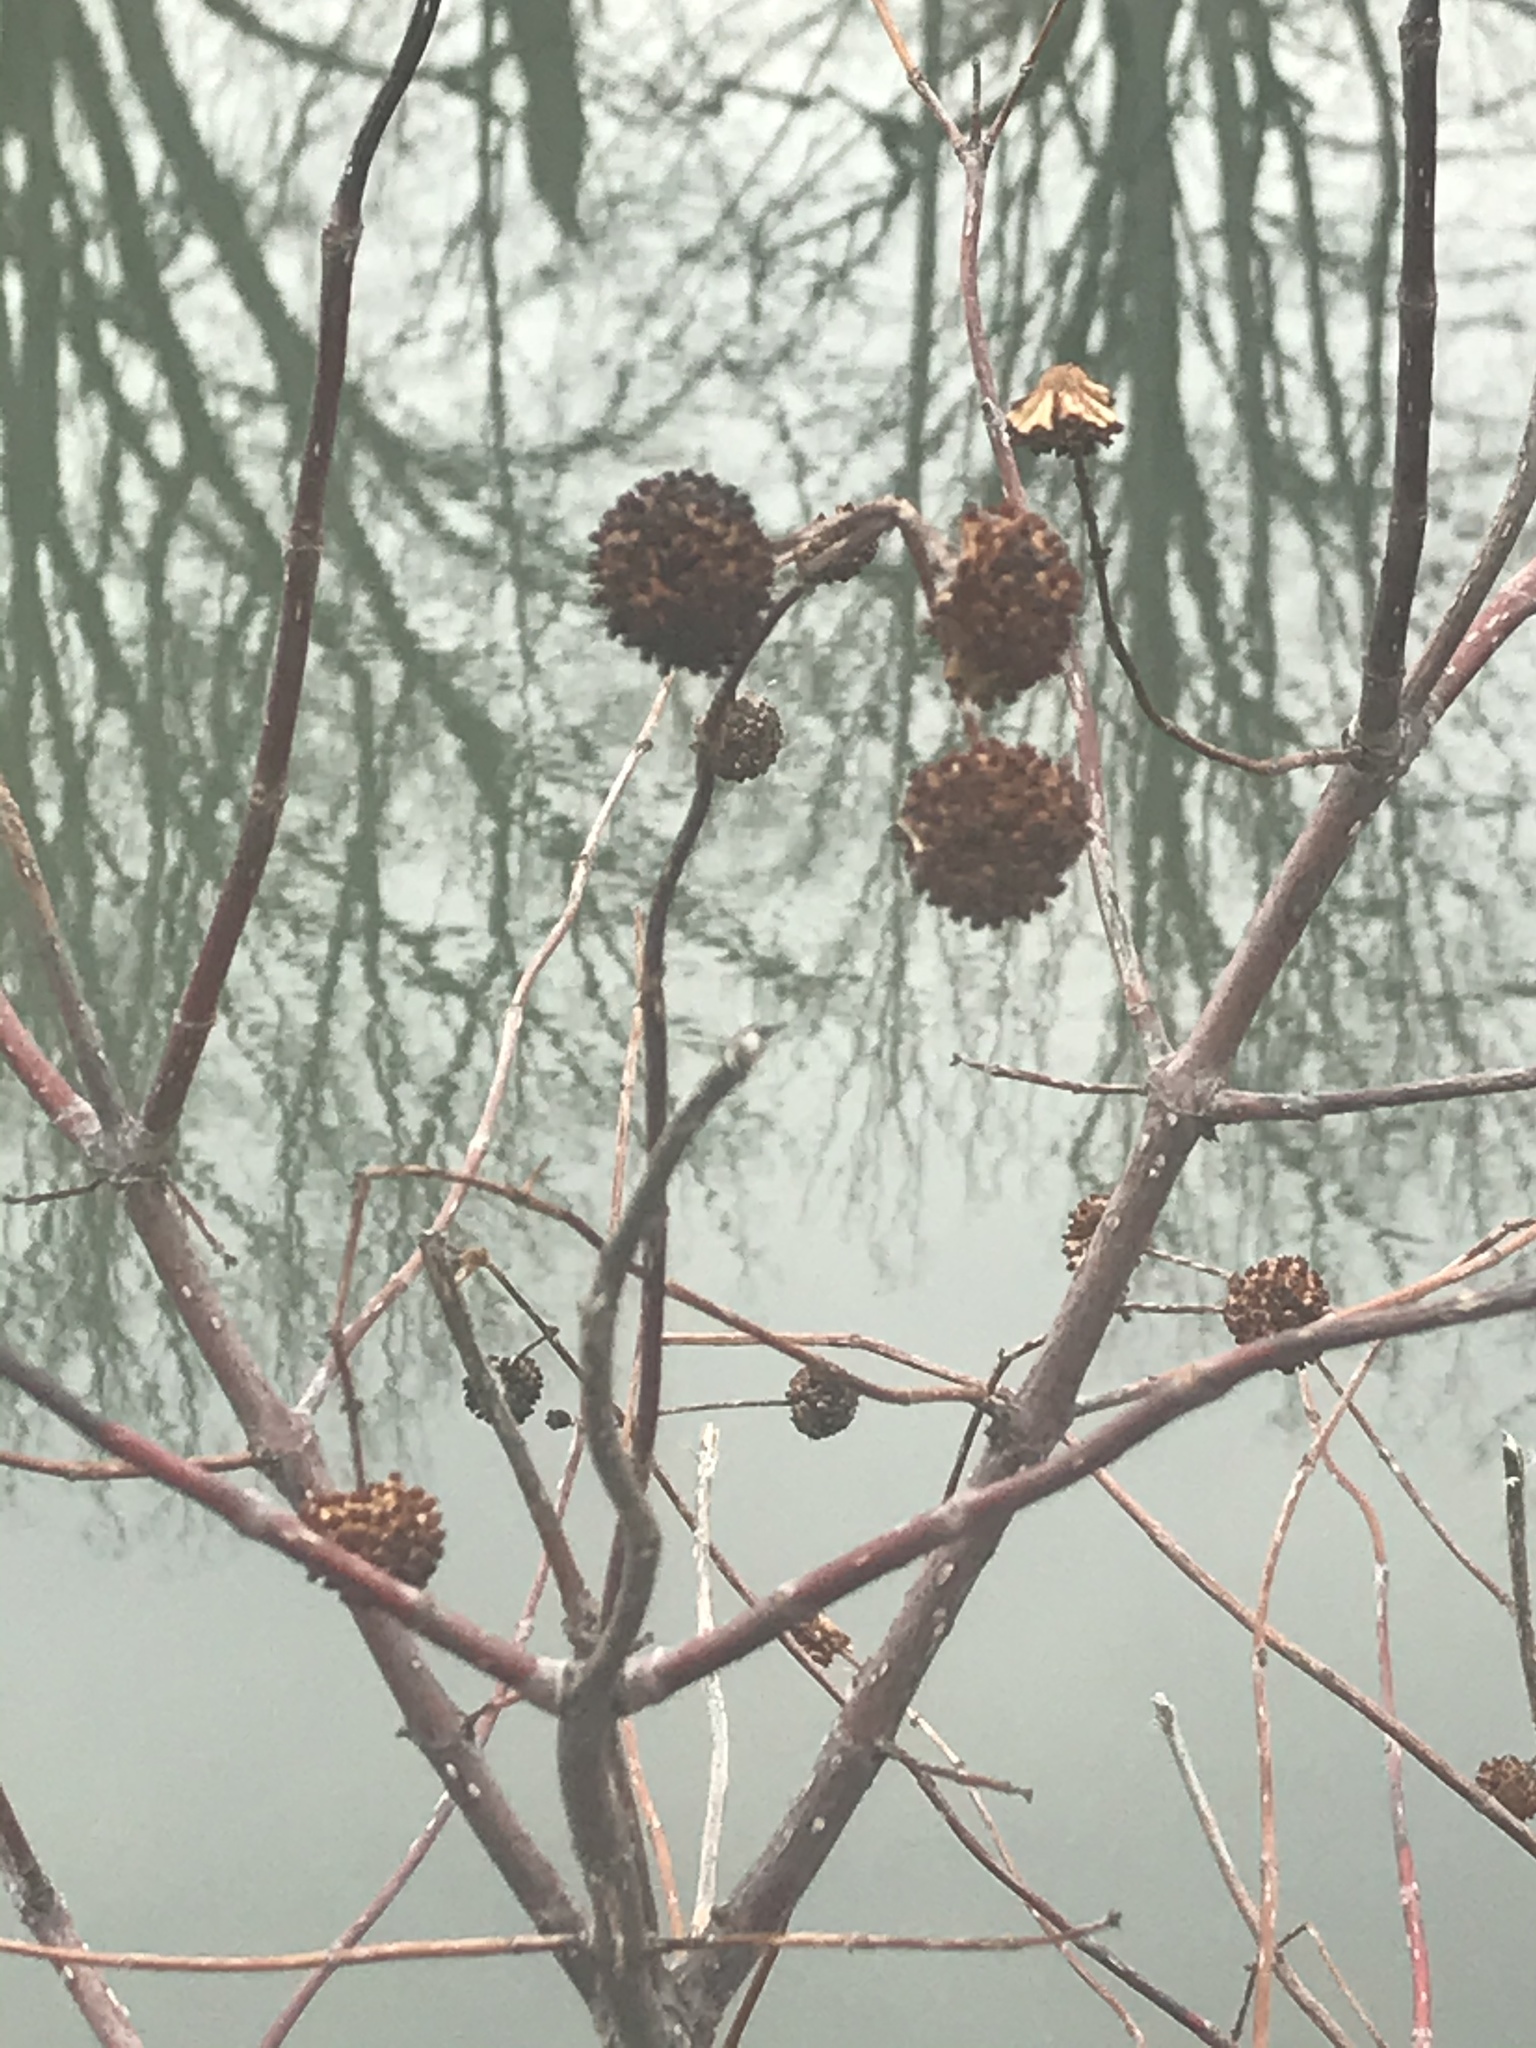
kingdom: Plantae
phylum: Tracheophyta
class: Magnoliopsida
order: Gentianales
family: Rubiaceae
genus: Cephalanthus
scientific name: Cephalanthus occidentalis
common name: Button-willow
